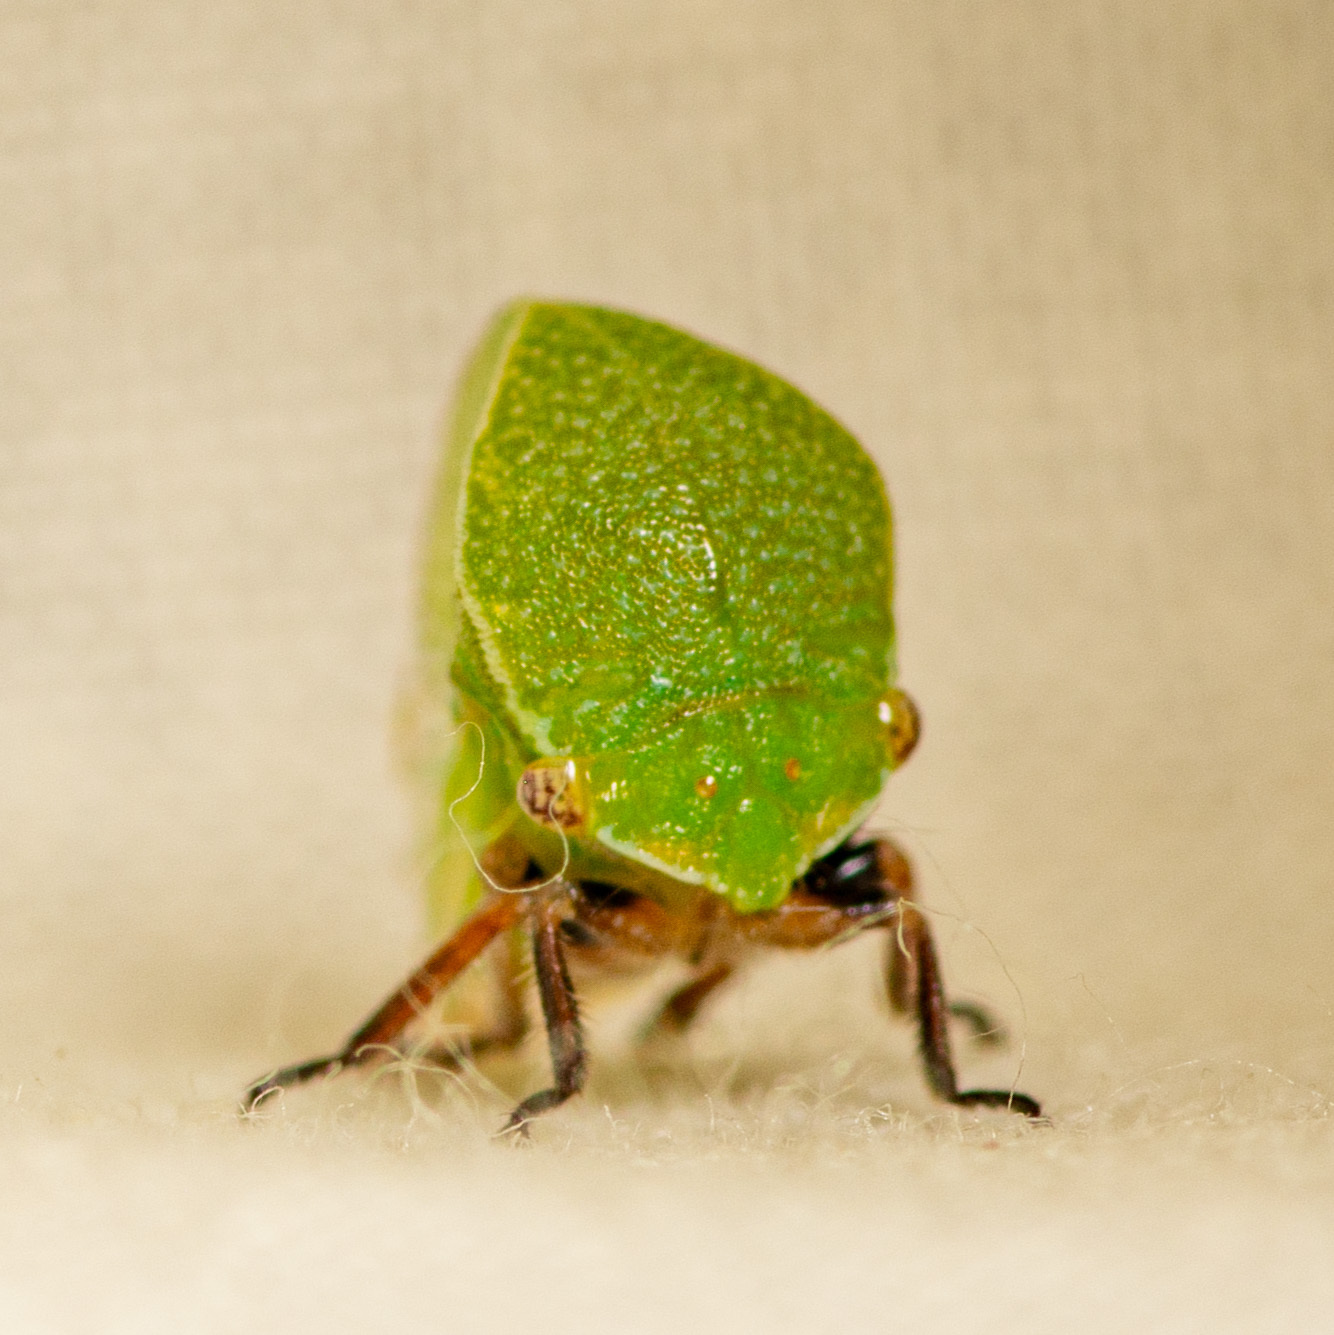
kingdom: Animalia
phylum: Arthropoda
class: Insecta
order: Hemiptera
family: Membracidae
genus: Tortistilus
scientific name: Tortistilus inermis
